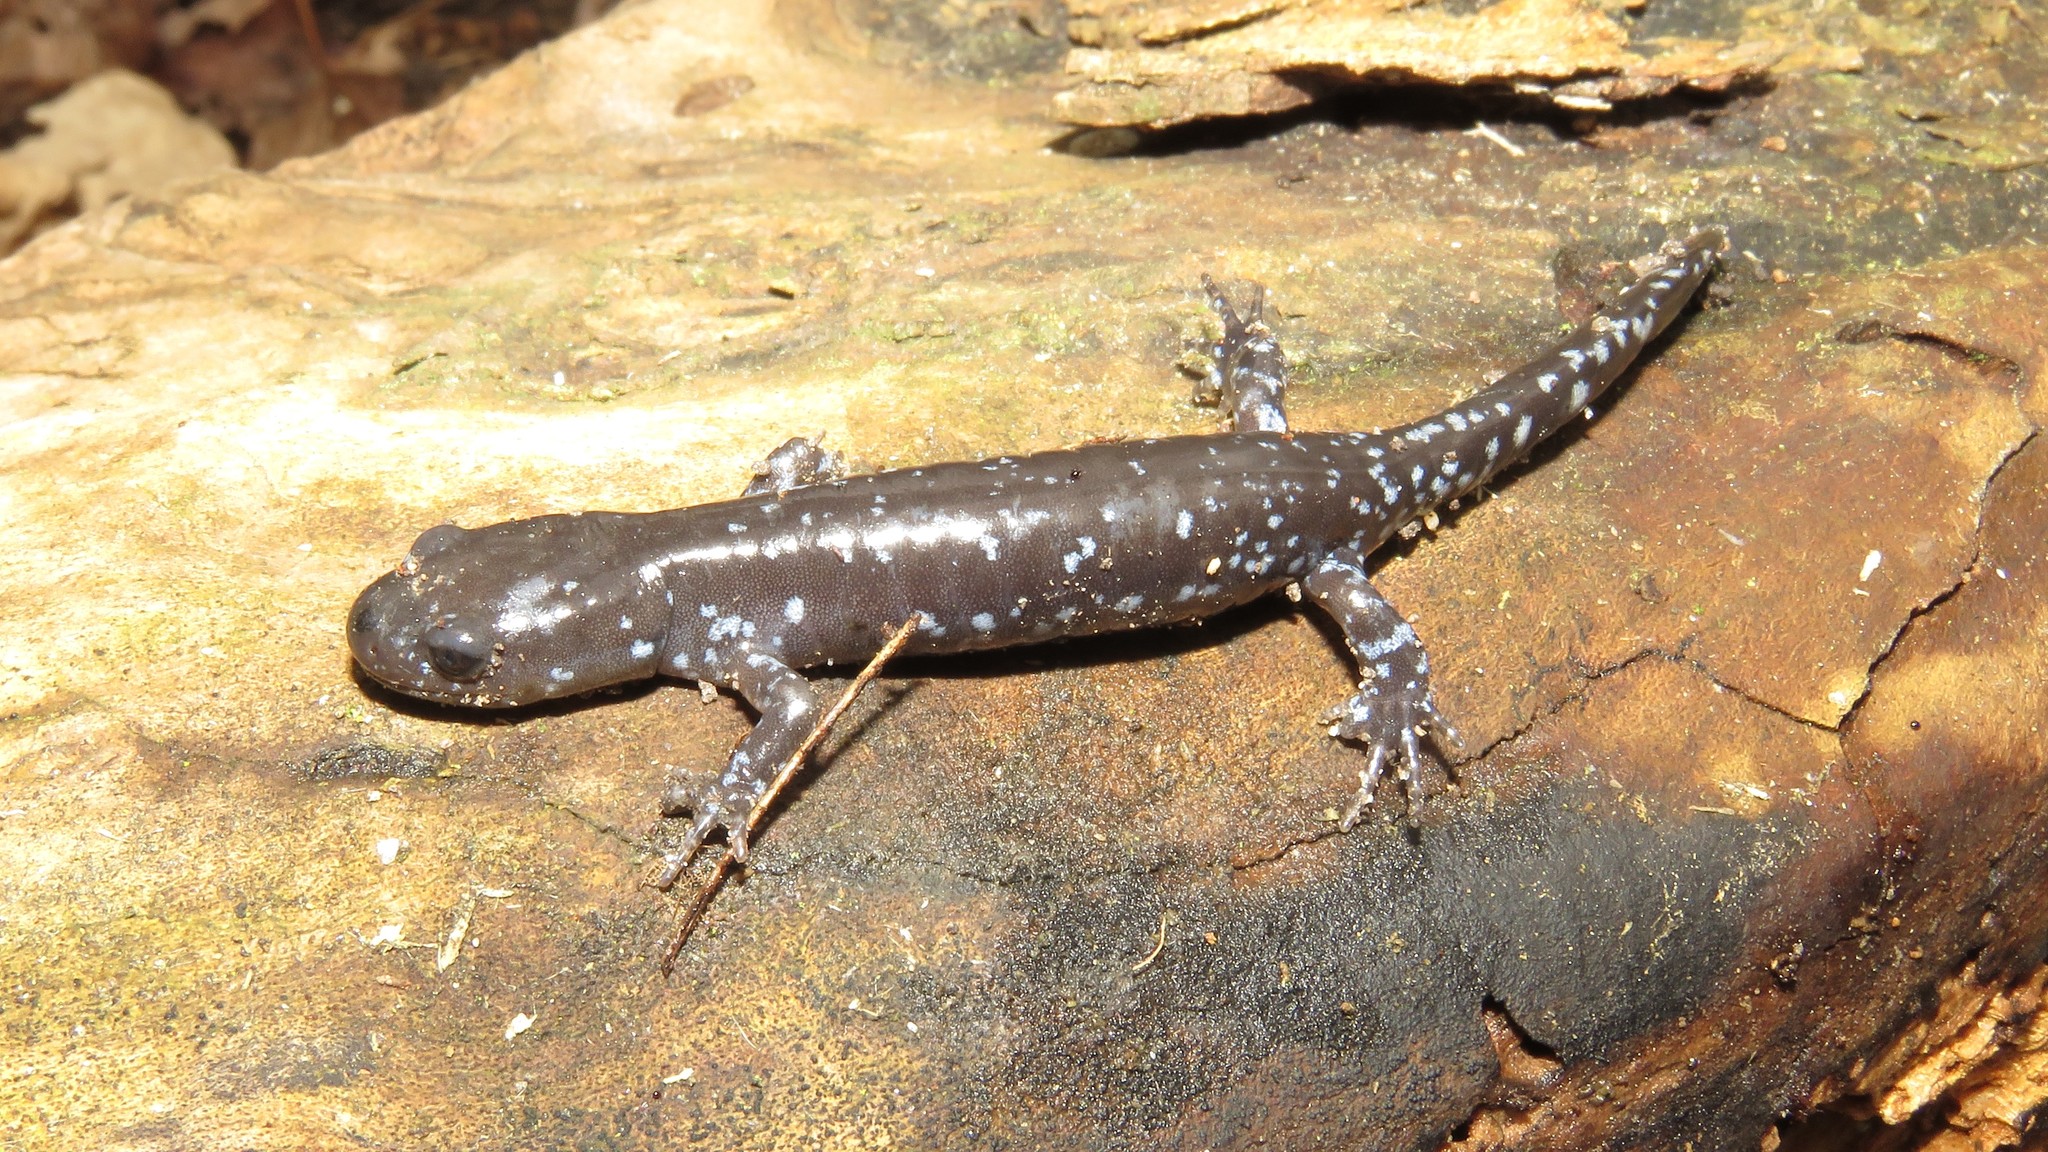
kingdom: Animalia
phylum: Chordata
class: Amphibia
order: Caudata
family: Ambystomatidae
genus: Ambystoma
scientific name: Ambystoma laterale
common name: Blue-spotted salamander
